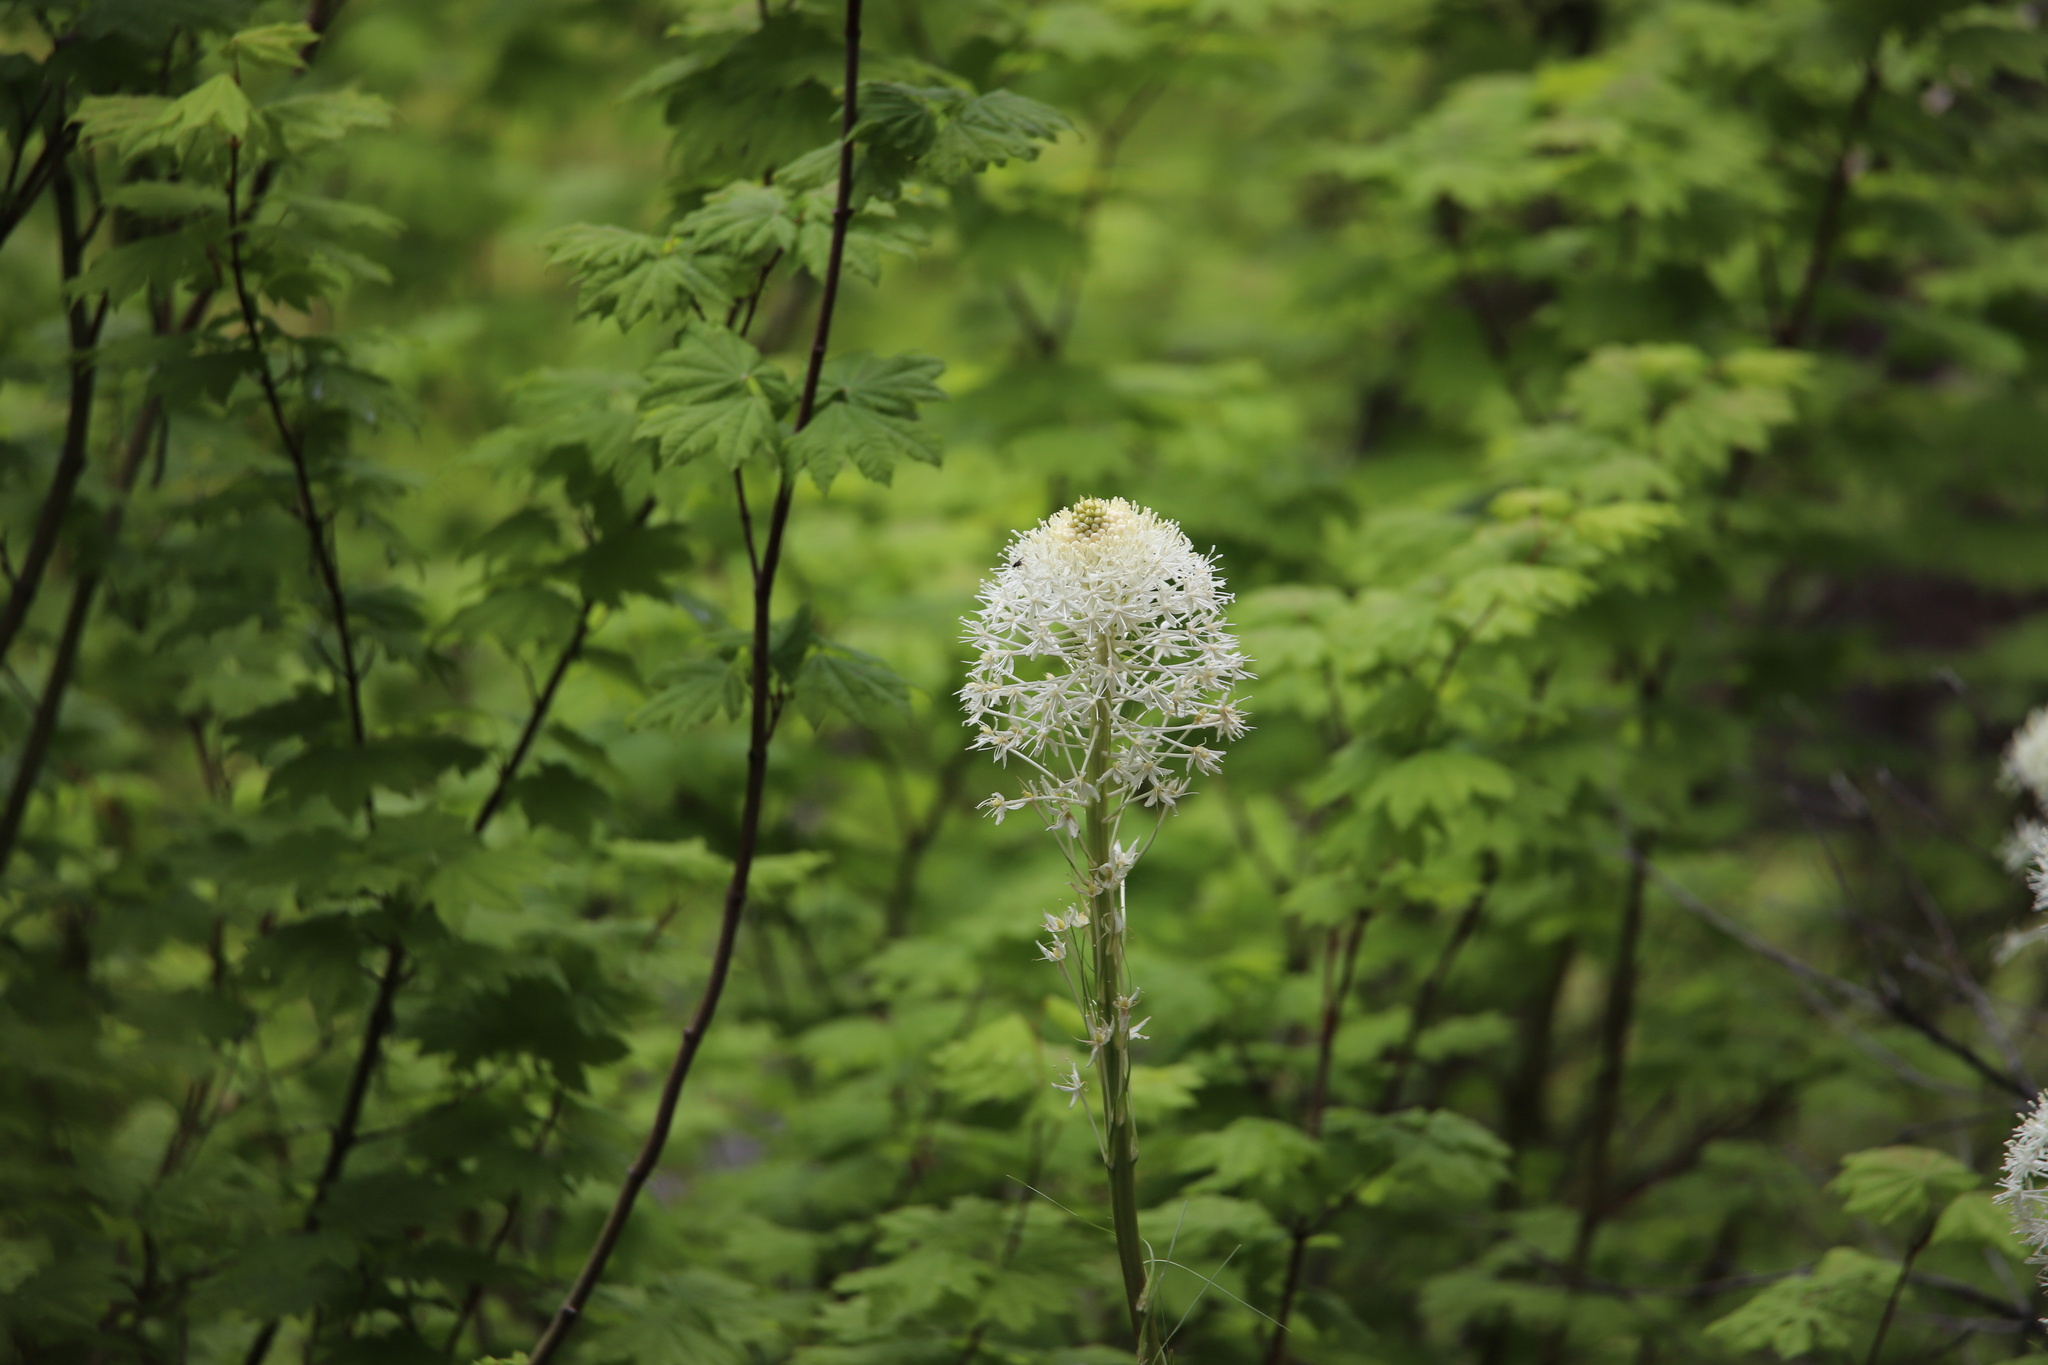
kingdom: Plantae
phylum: Tracheophyta
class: Liliopsida
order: Liliales
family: Melanthiaceae
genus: Xerophyllum
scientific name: Xerophyllum tenax
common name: Bear-grass
